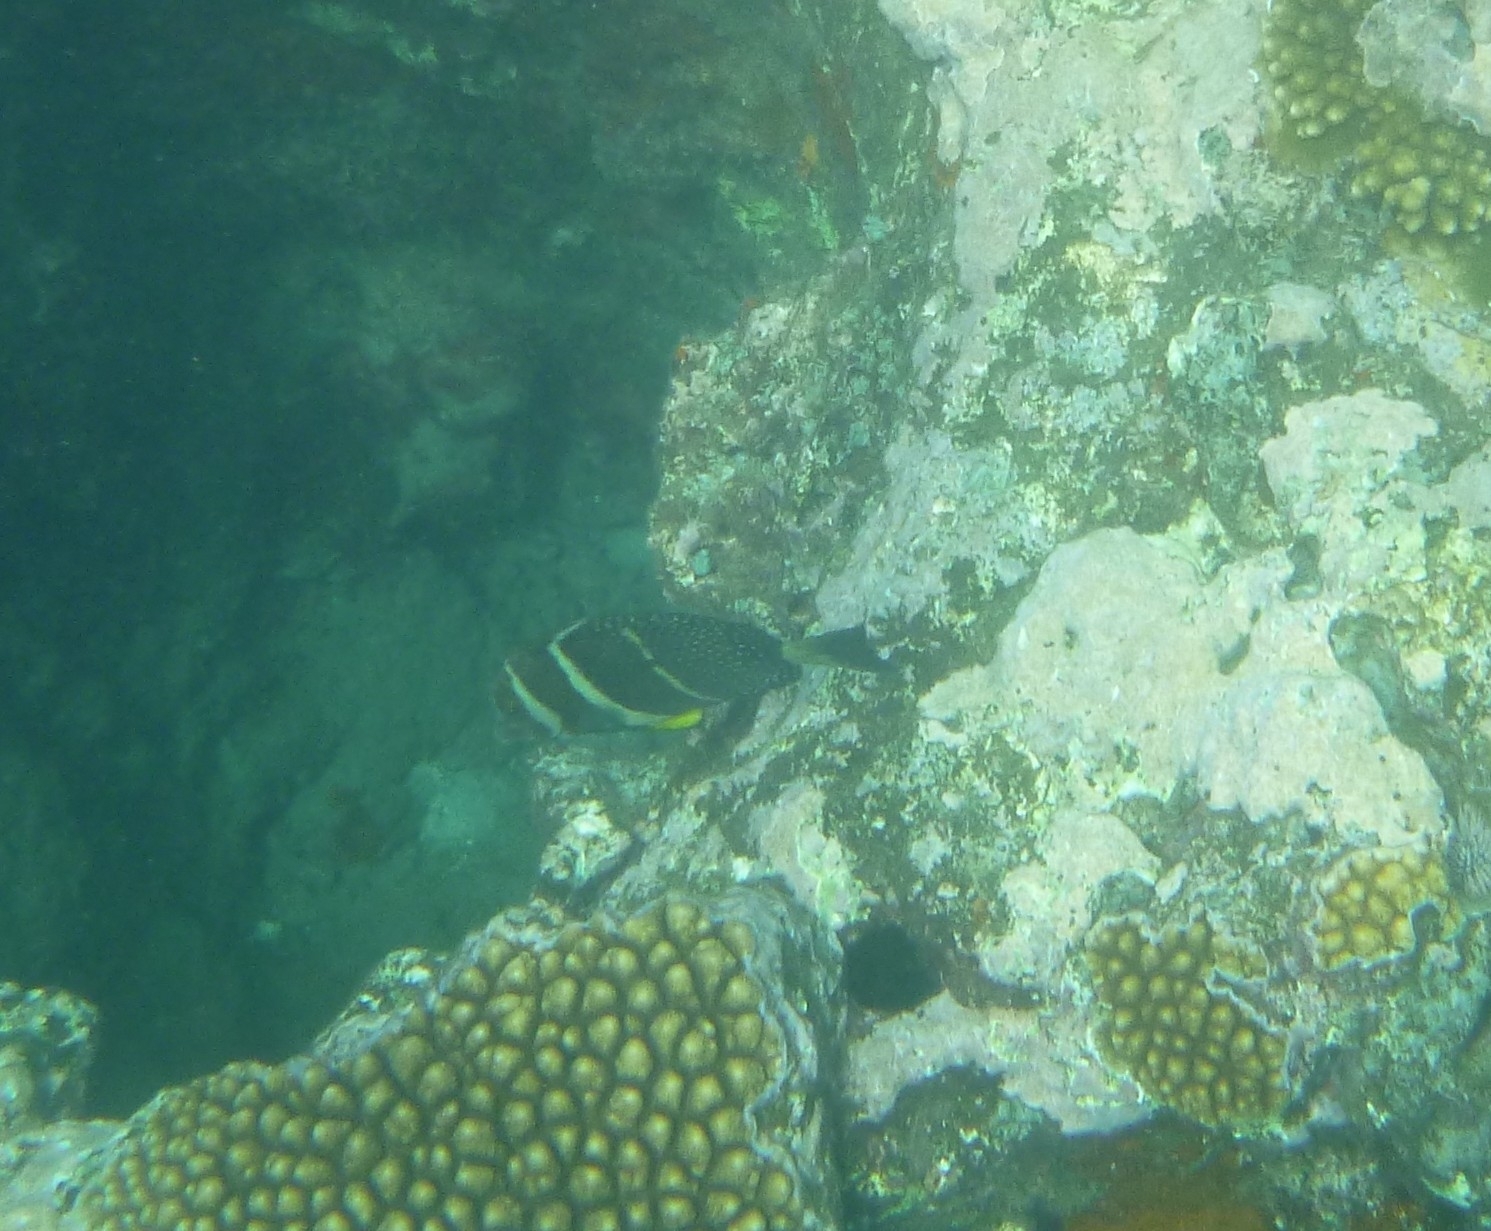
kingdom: Animalia
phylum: Chordata
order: Perciformes
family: Acanthuridae
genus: Acanthurus
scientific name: Acanthurus guttatus
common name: Whitespotted surgeonfish
